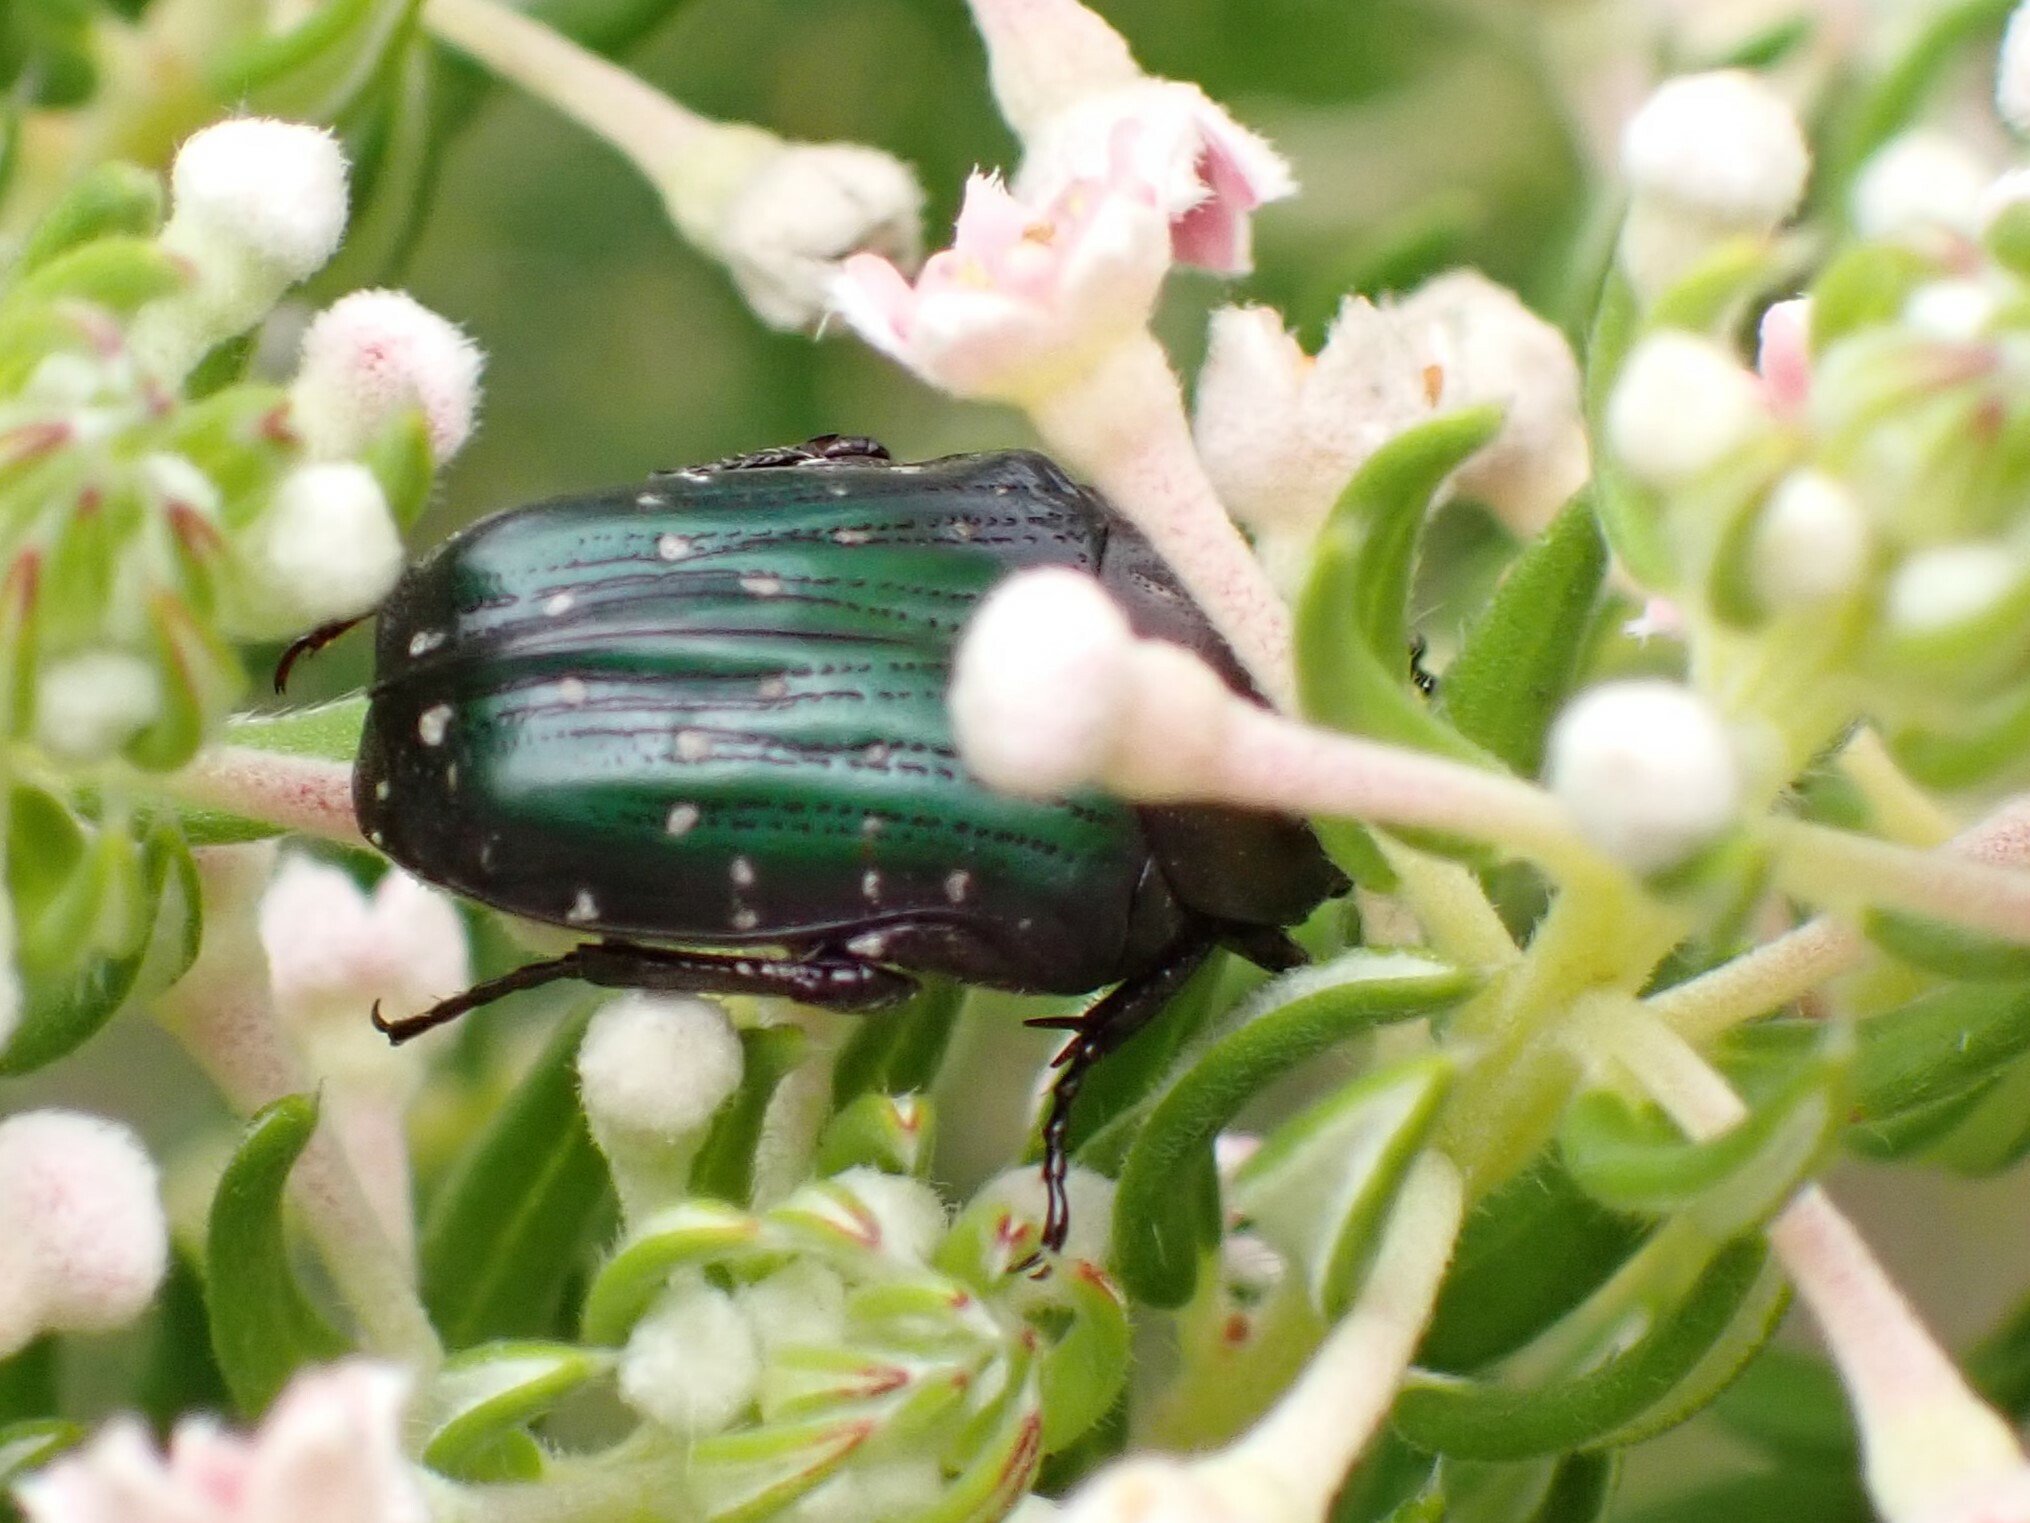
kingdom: Animalia
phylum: Arthropoda
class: Insecta
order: Coleoptera
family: Scarabaeidae
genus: Leucocelis
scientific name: Leucocelis adspersa
